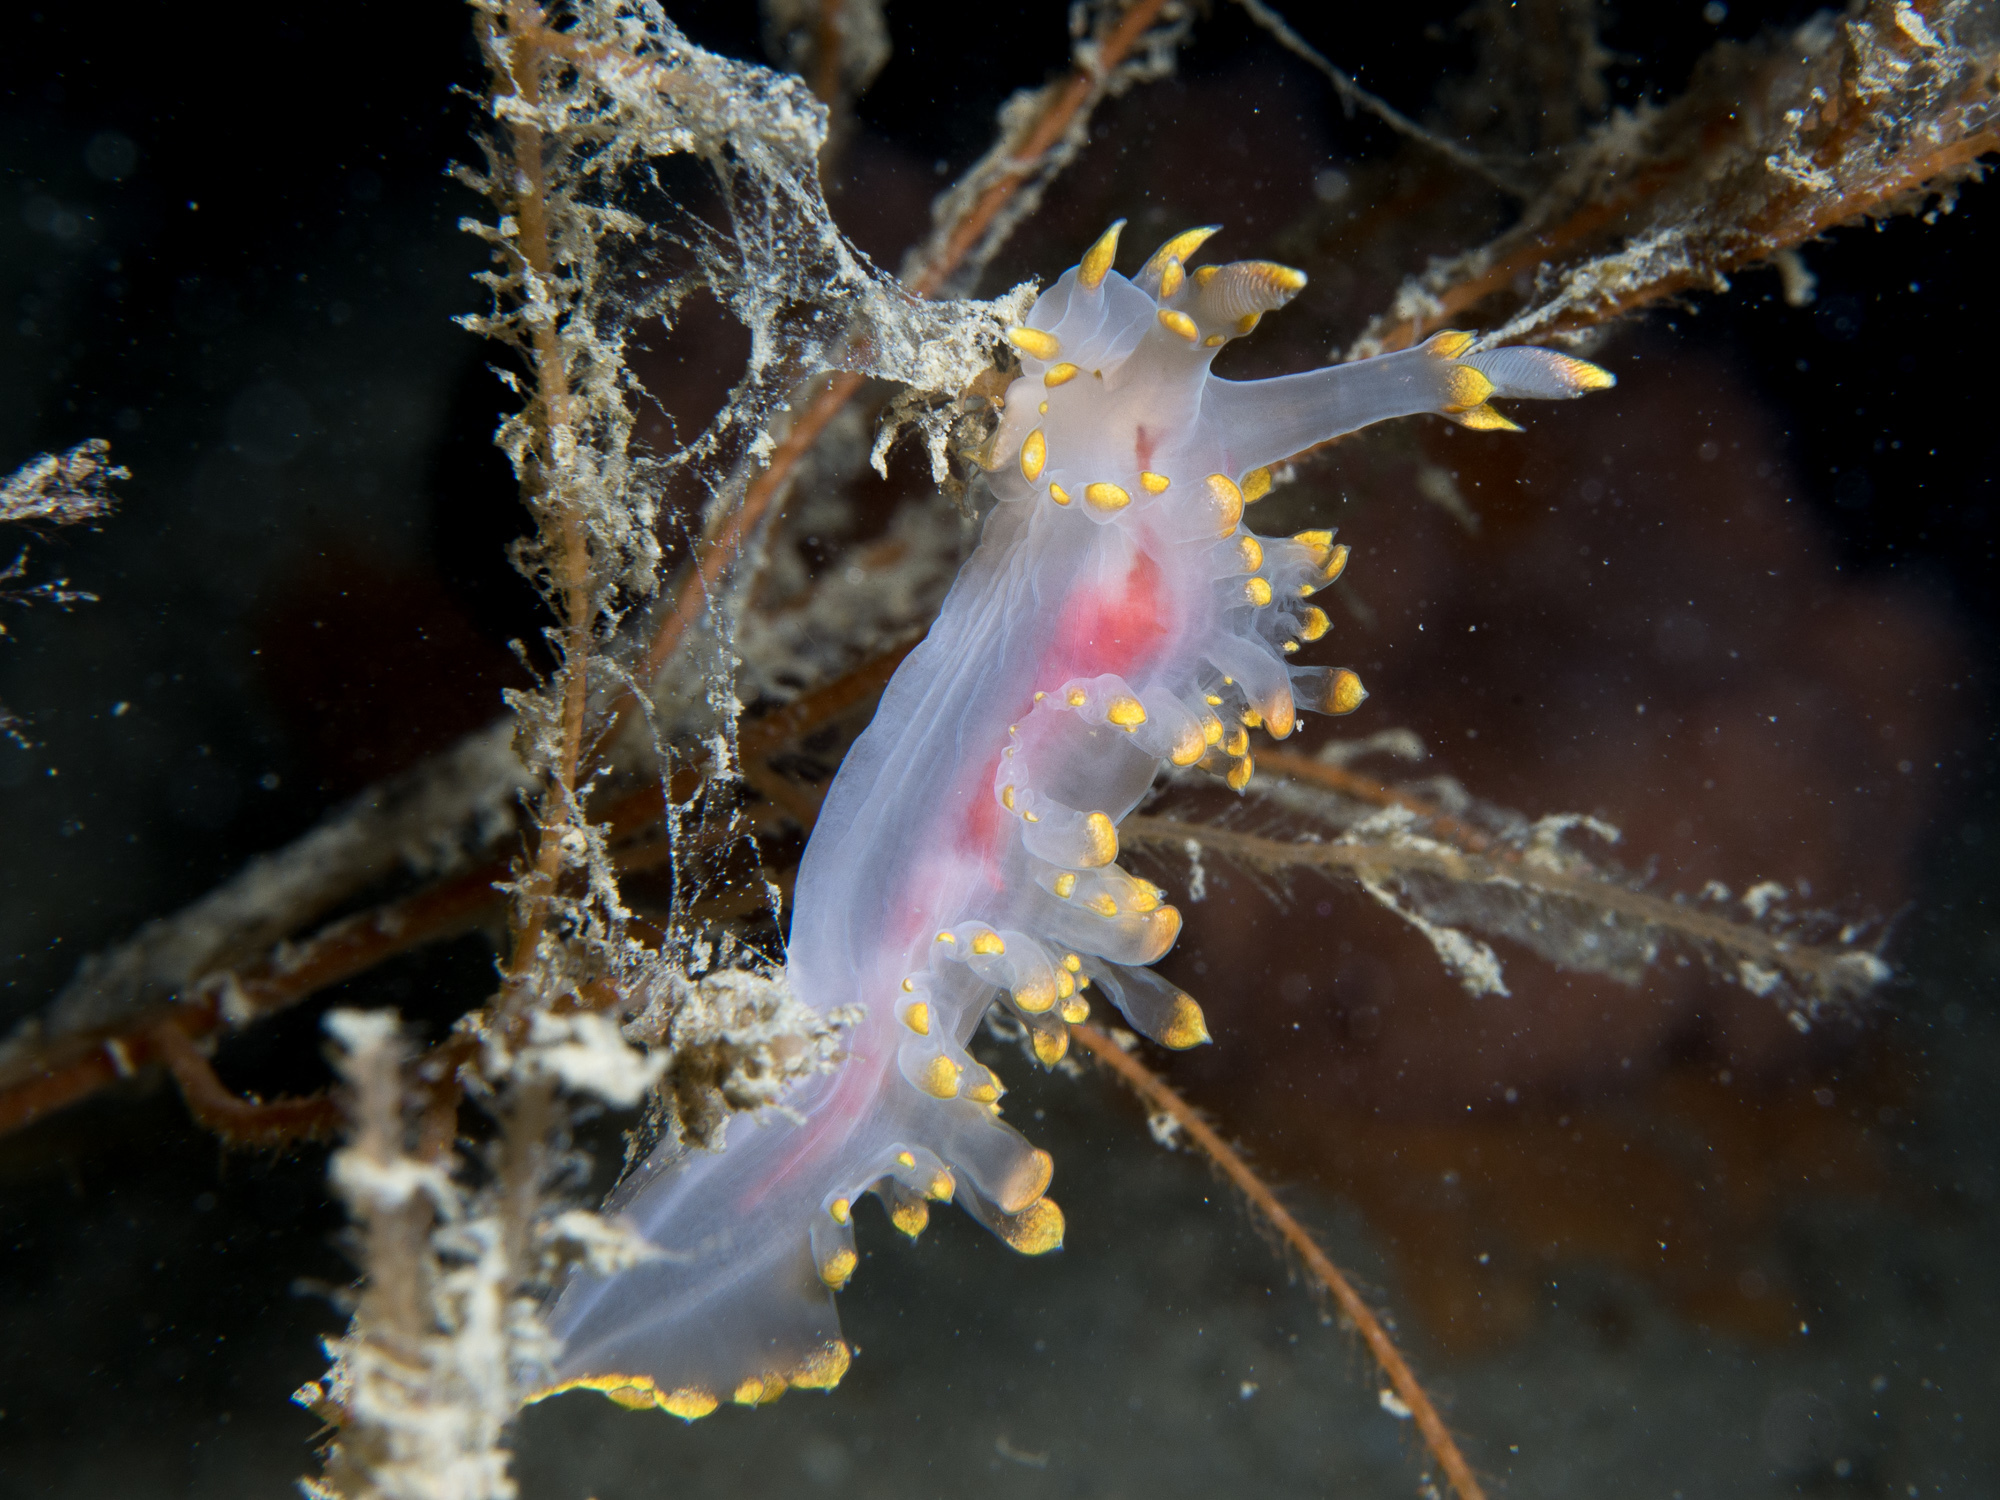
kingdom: Animalia
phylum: Mollusca
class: Gastropoda
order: Nudibranchia
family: Lomanotidae
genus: Lomanotus
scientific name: Lomanotus genei
